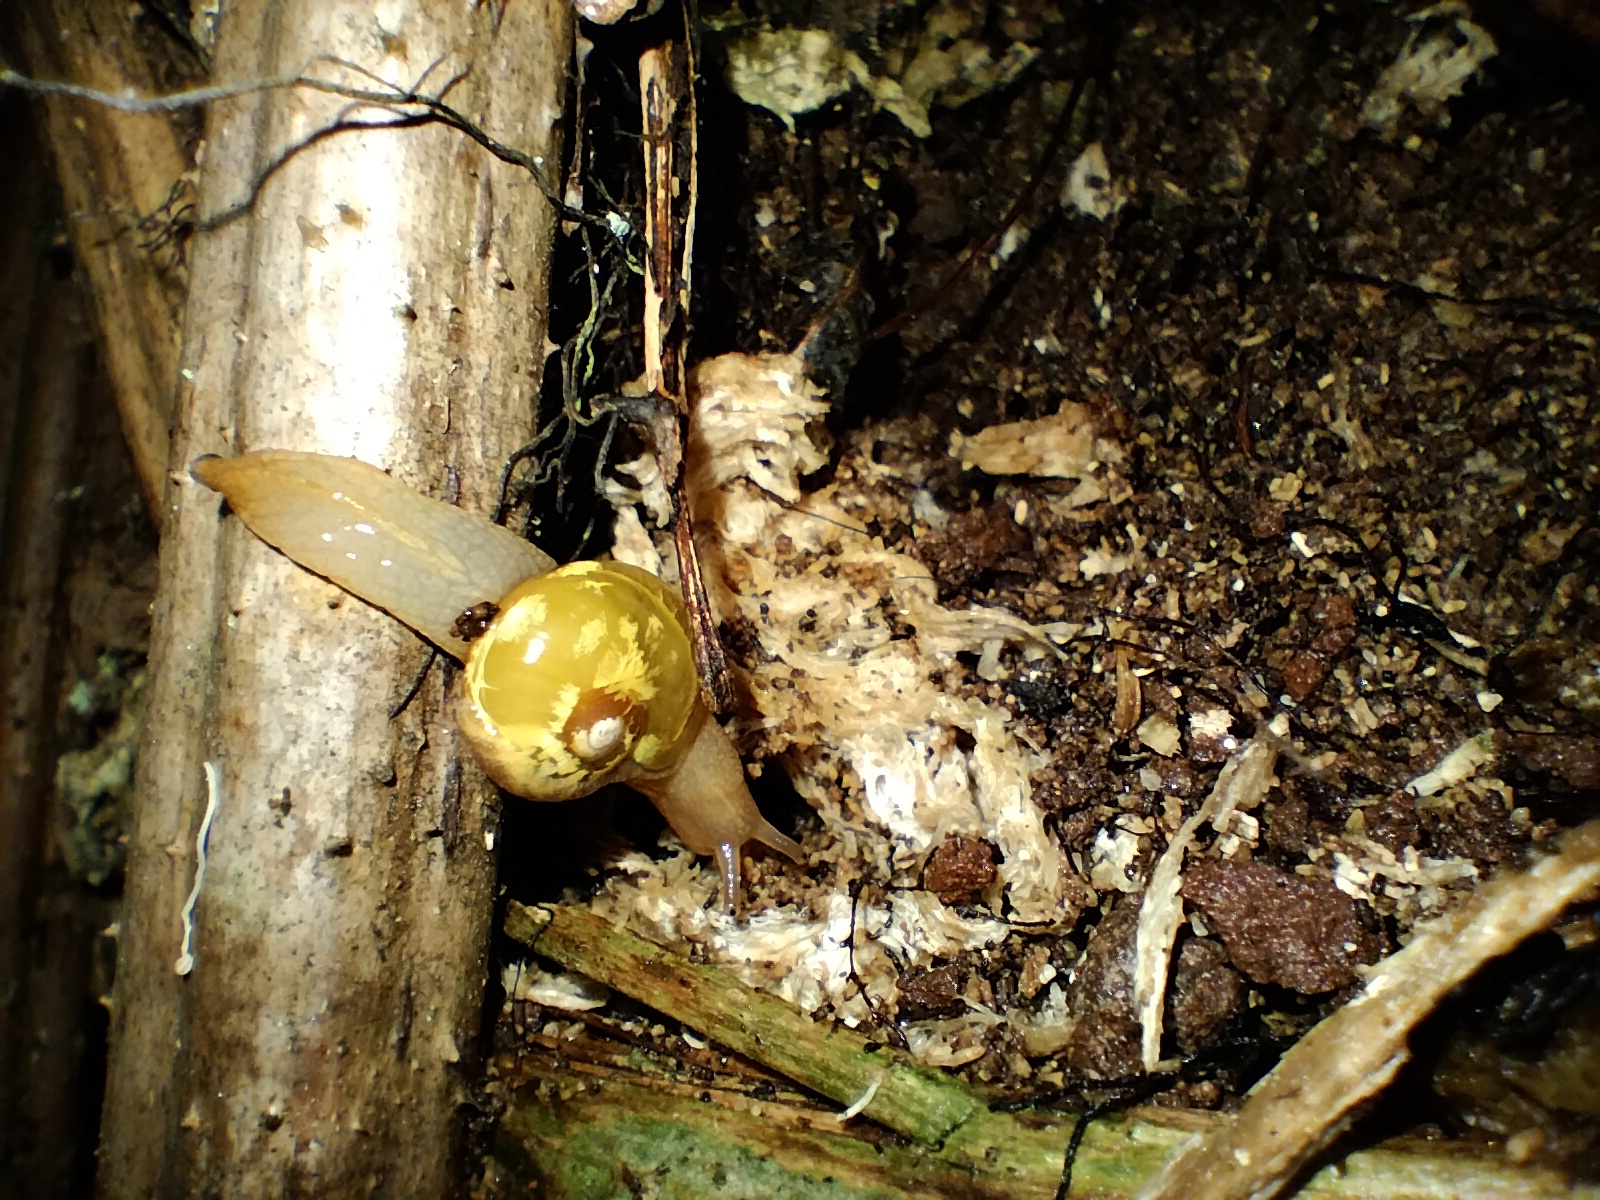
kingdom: Animalia
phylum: Mollusca
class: Gastropoda
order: Stylommatophora
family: Helicarionidae
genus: Mysticarion
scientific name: Mysticarion porrectus
